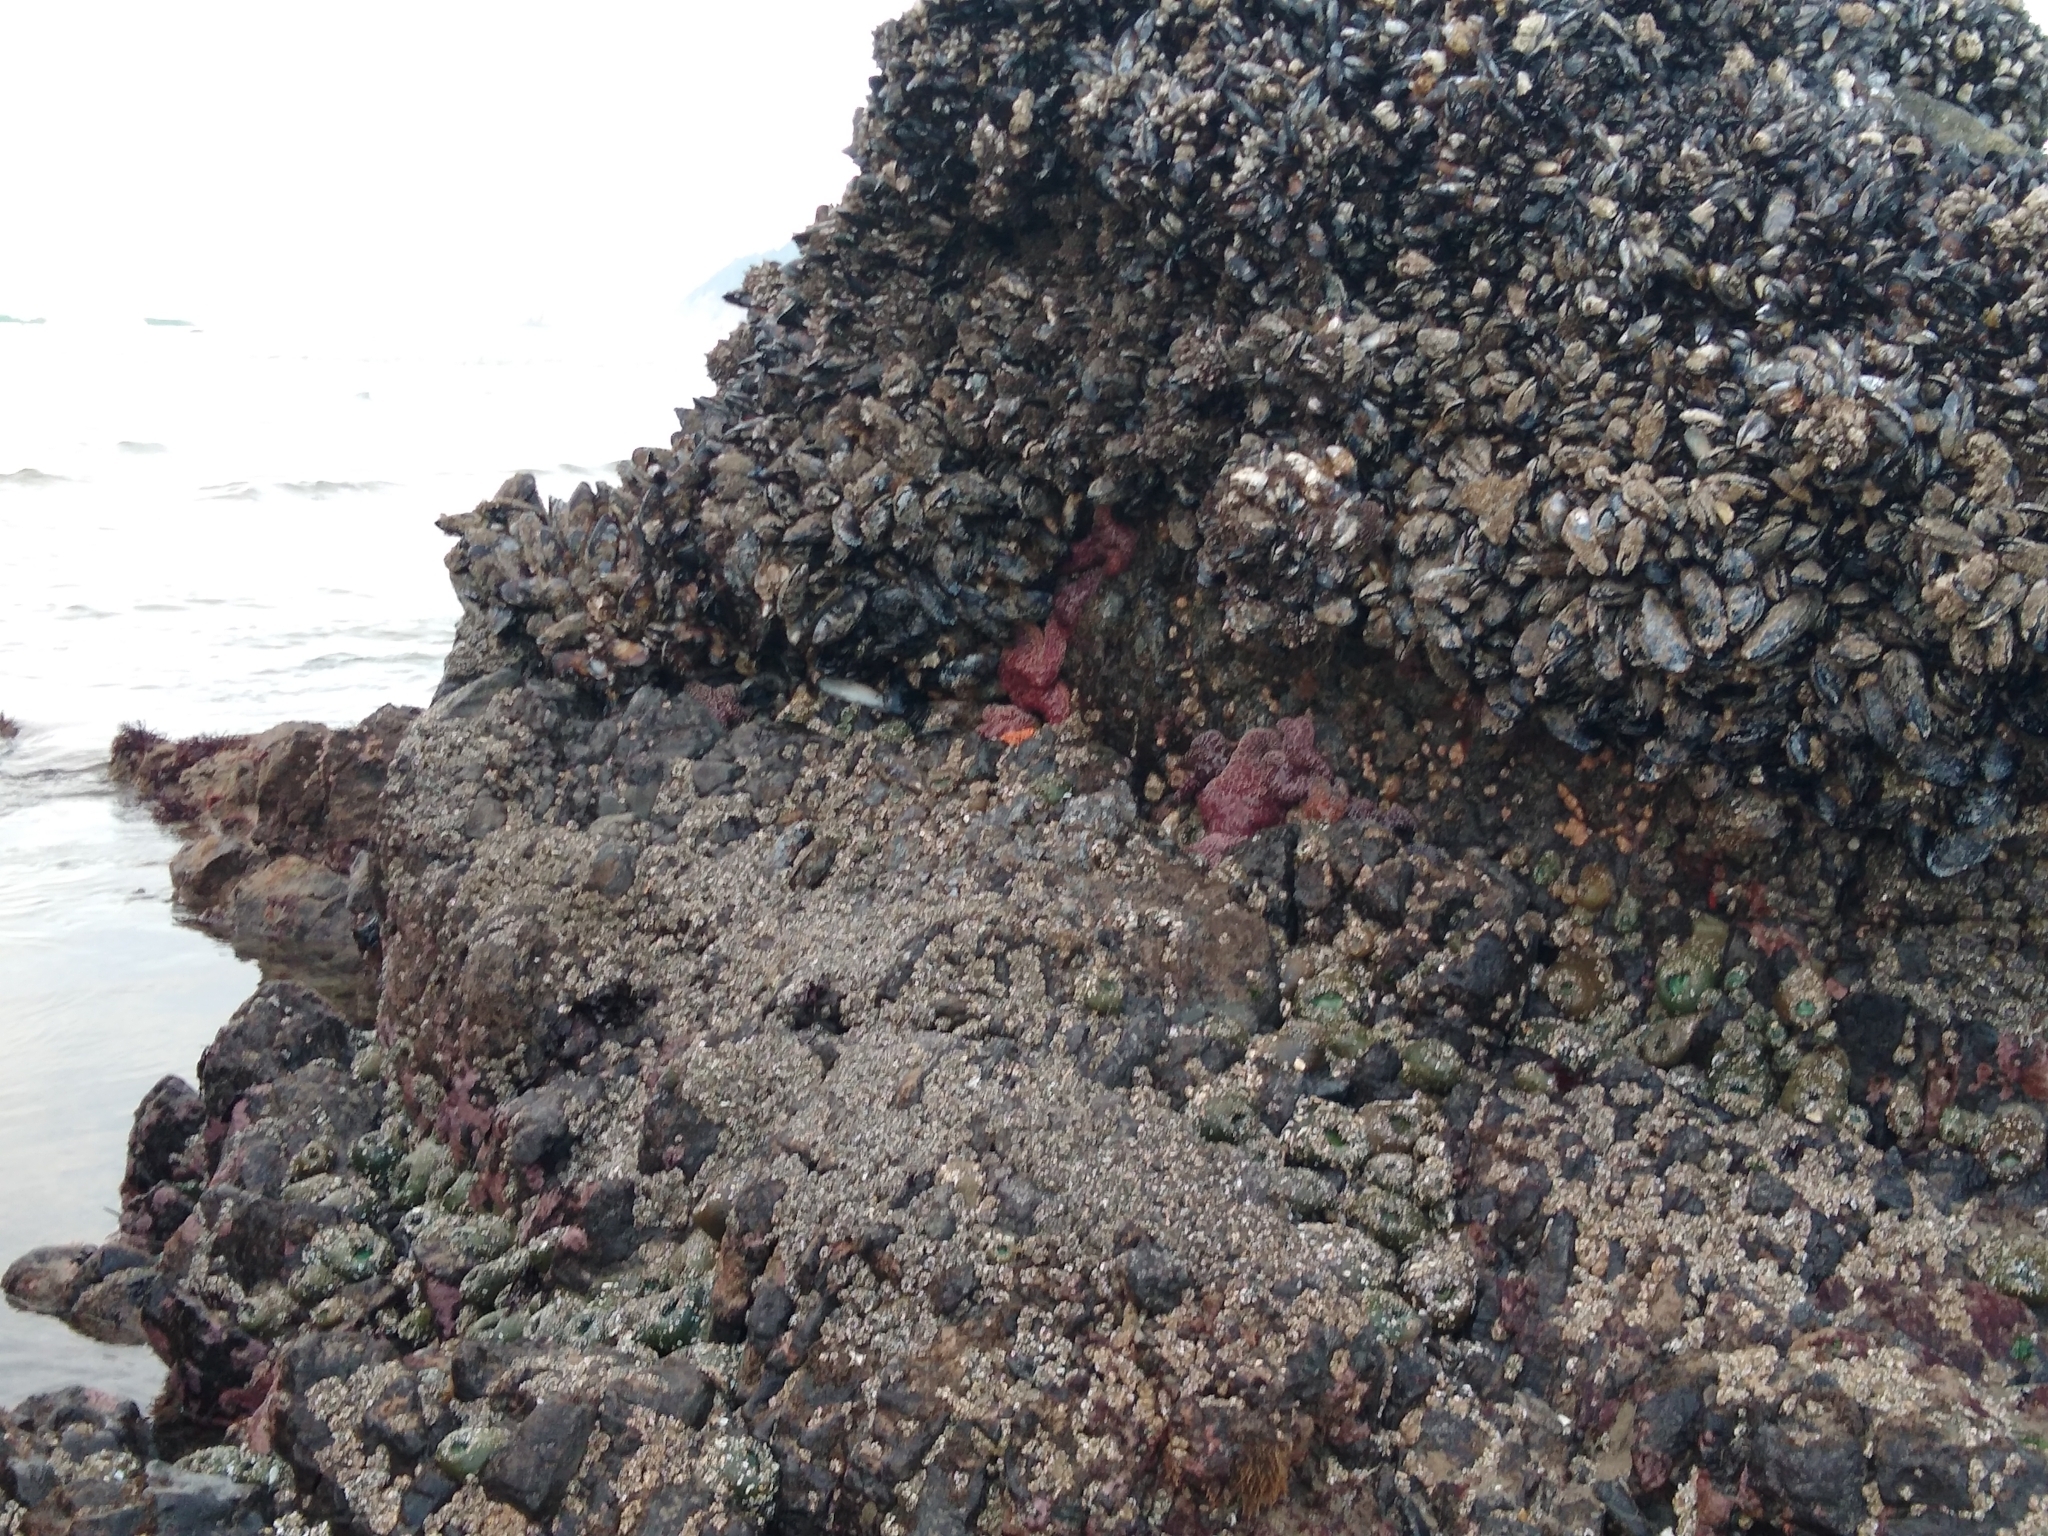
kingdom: Animalia
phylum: Echinodermata
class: Asteroidea
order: Forcipulatida
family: Asteriidae
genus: Pisaster
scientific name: Pisaster ochraceus
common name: Ochre stars
